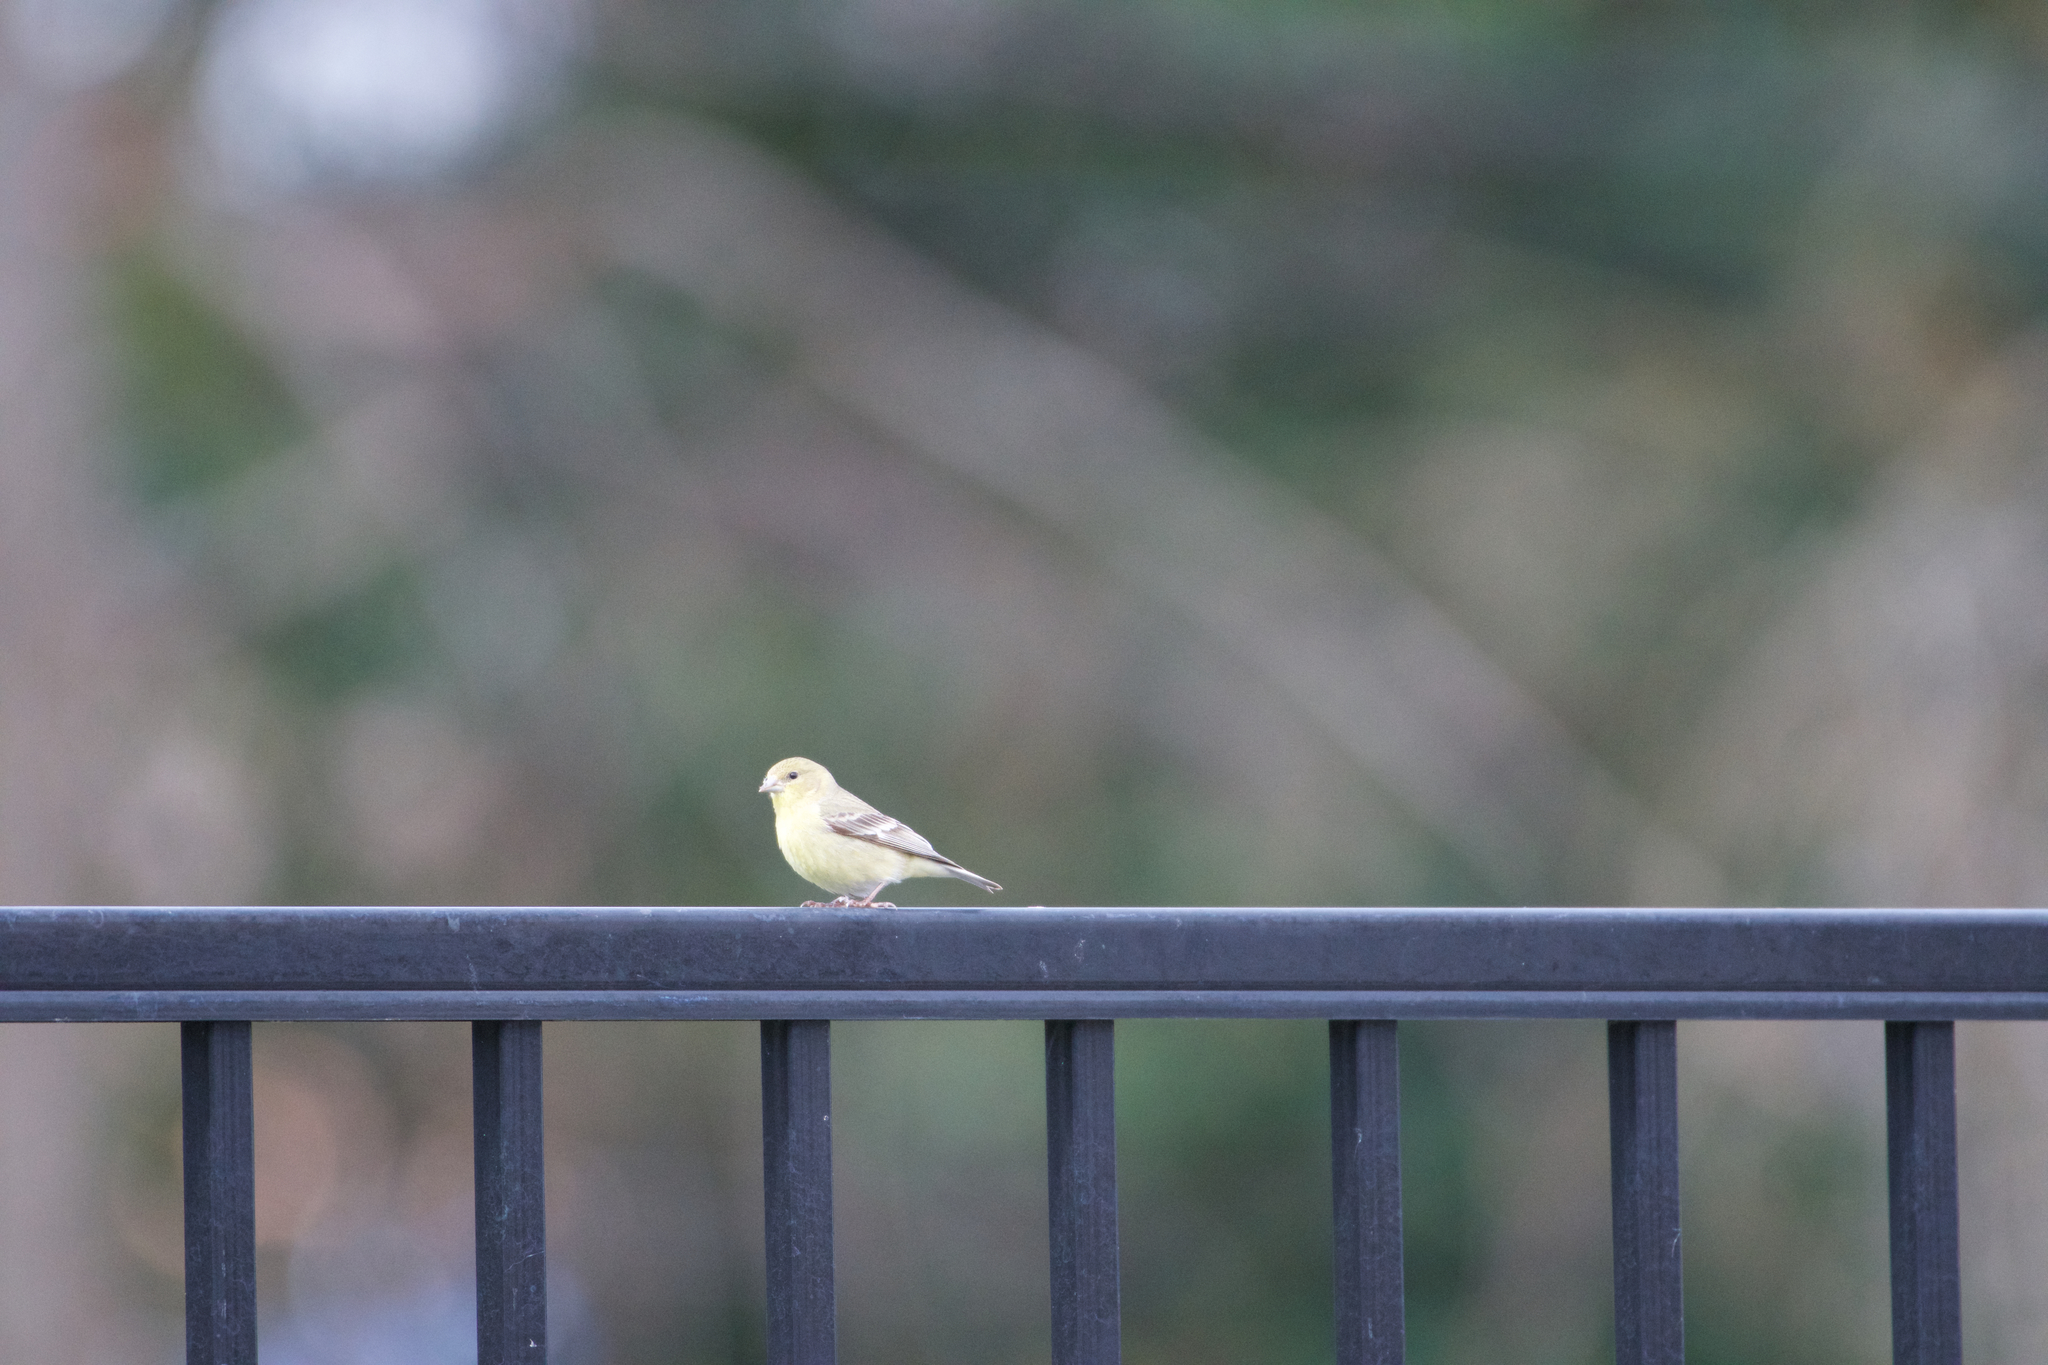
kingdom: Animalia
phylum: Chordata
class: Aves
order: Passeriformes
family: Fringillidae
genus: Spinus
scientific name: Spinus psaltria
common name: Lesser goldfinch
